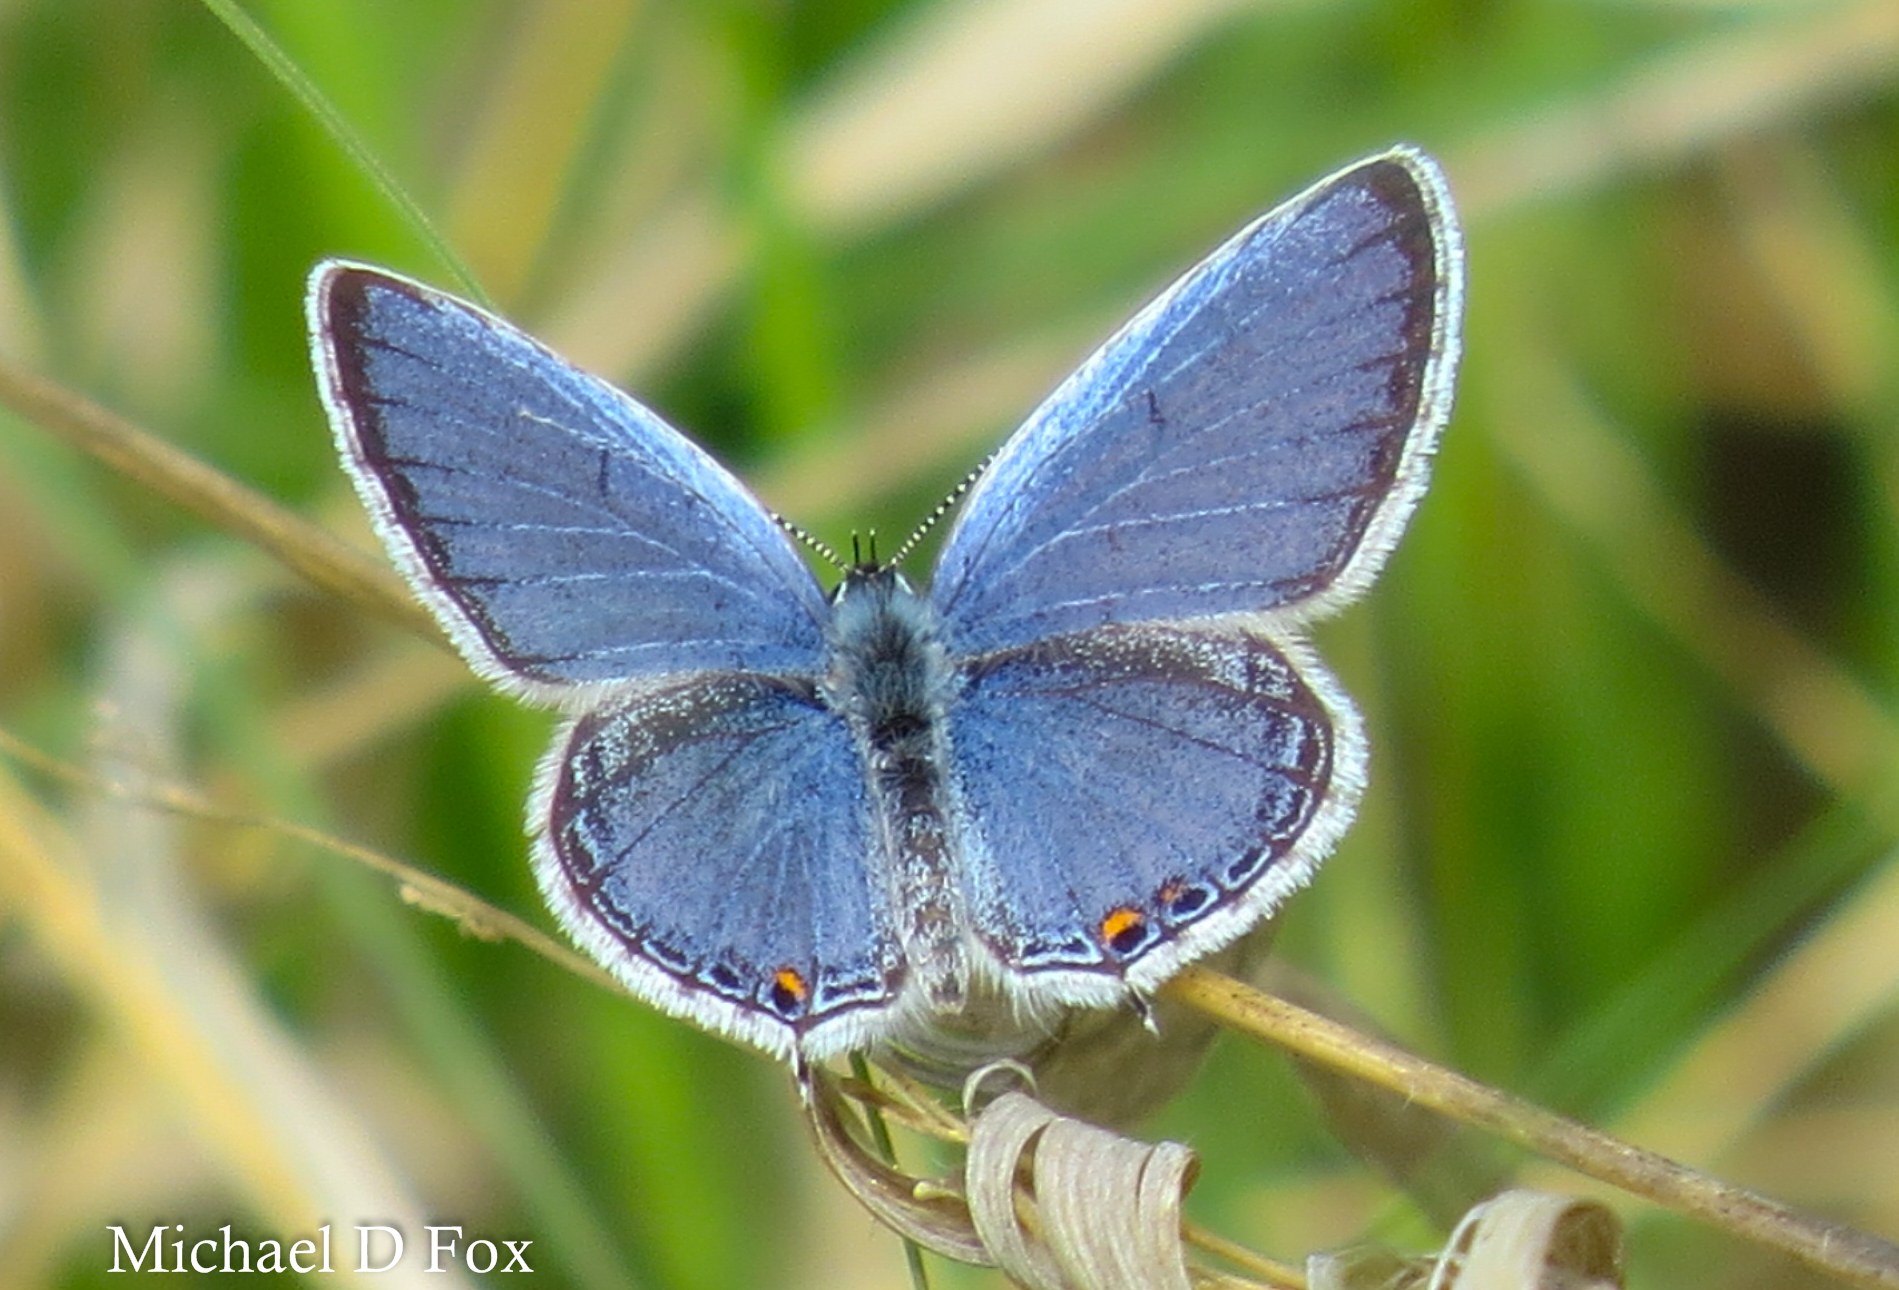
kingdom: Animalia
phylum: Arthropoda
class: Insecta
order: Lepidoptera
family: Lycaenidae
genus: Elkalyce
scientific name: Elkalyce comyntas
